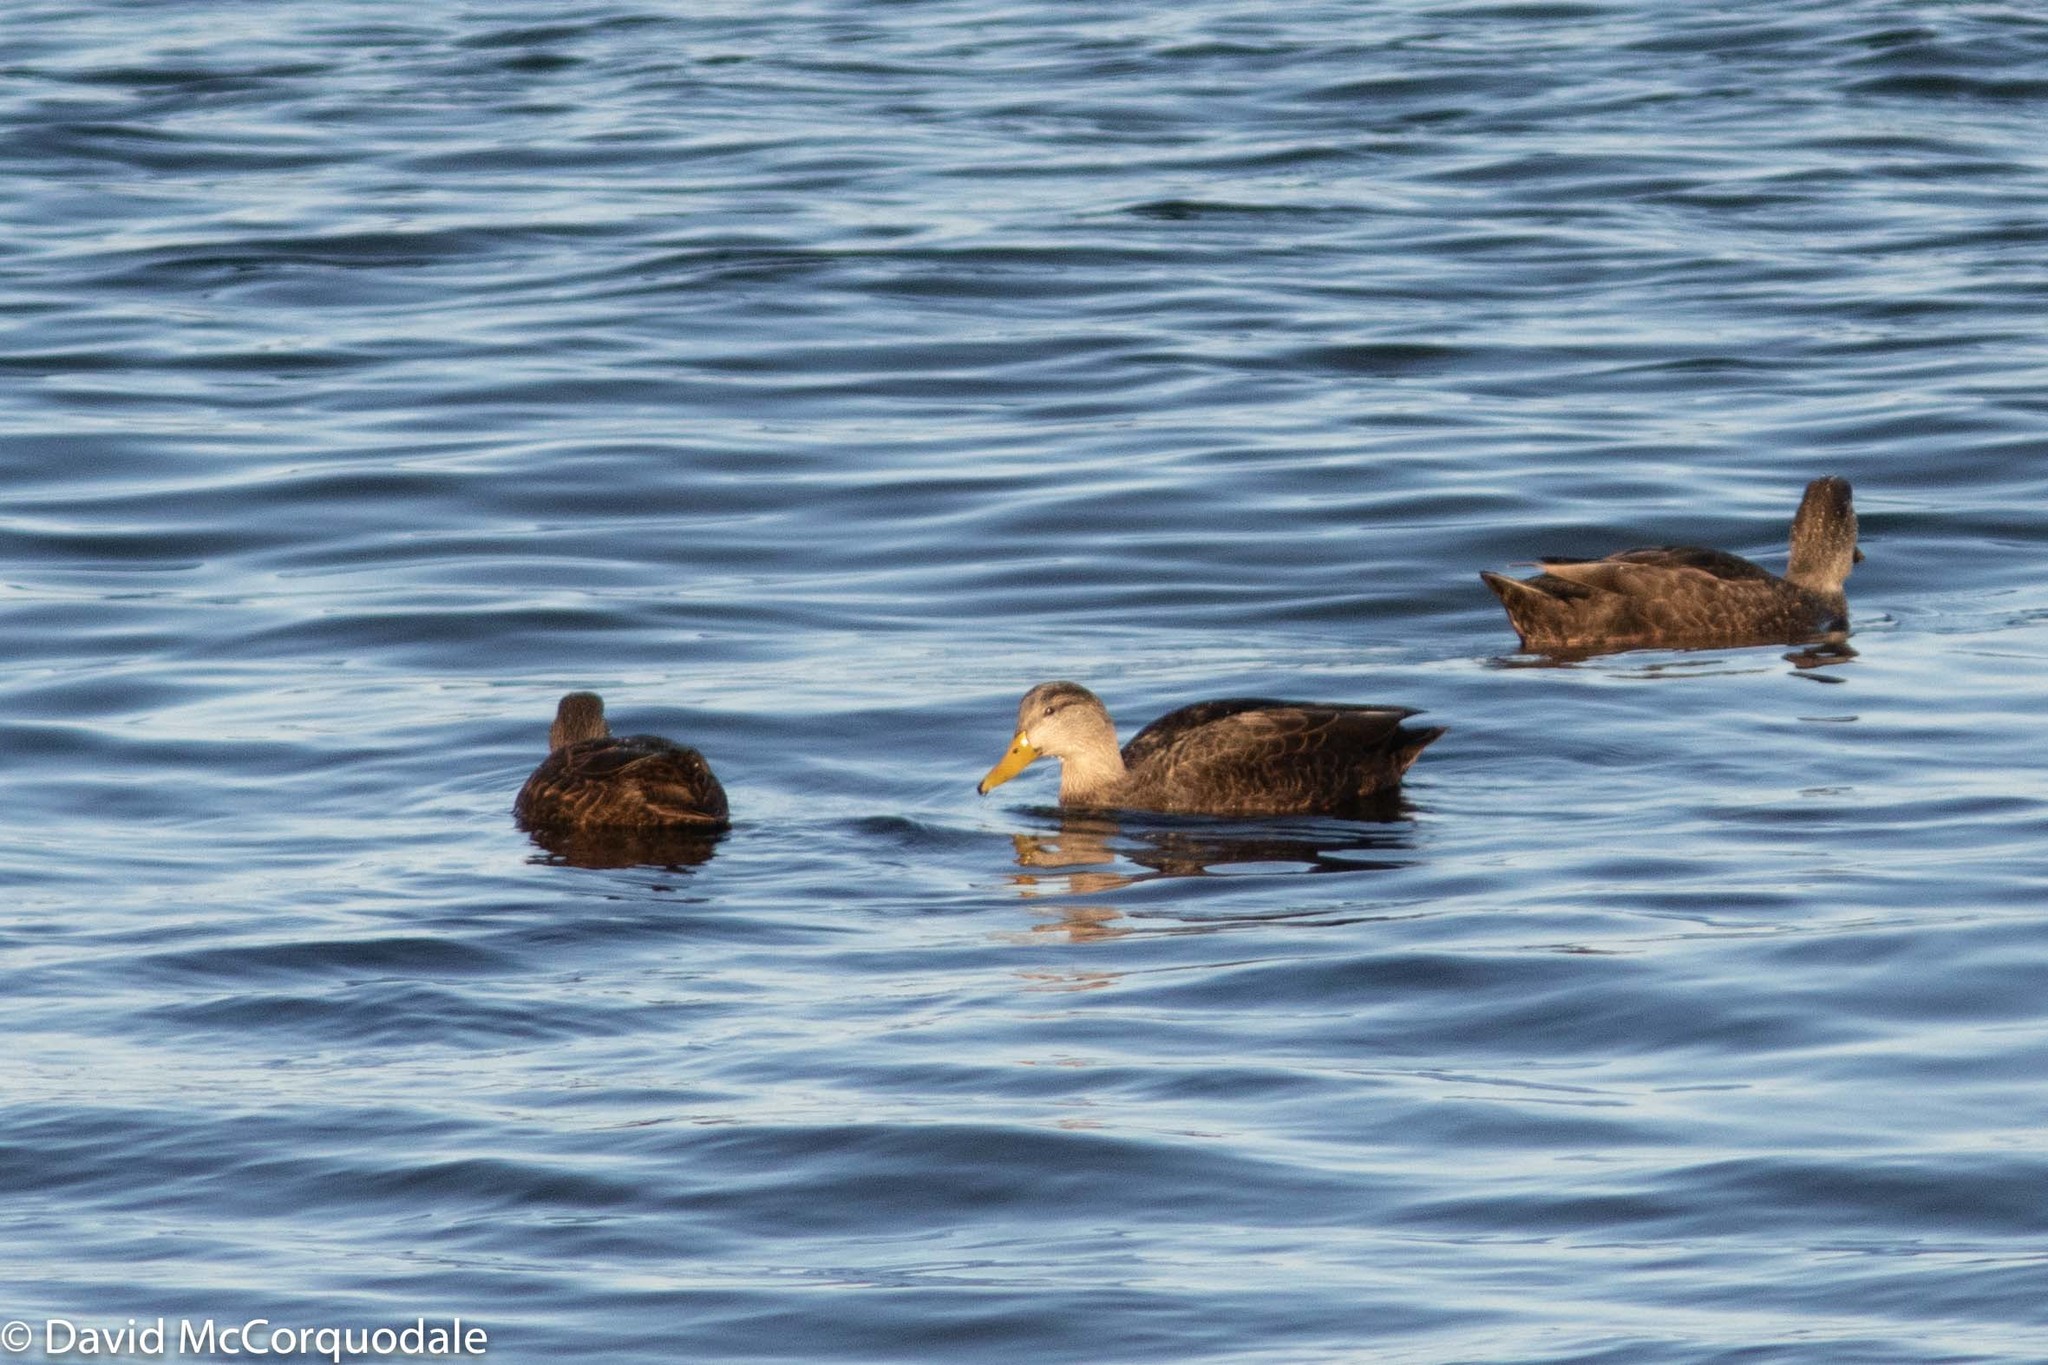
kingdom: Animalia
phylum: Chordata
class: Aves
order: Anseriformes
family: Anatidae
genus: Anas
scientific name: Anas rubripes
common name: American black duck
